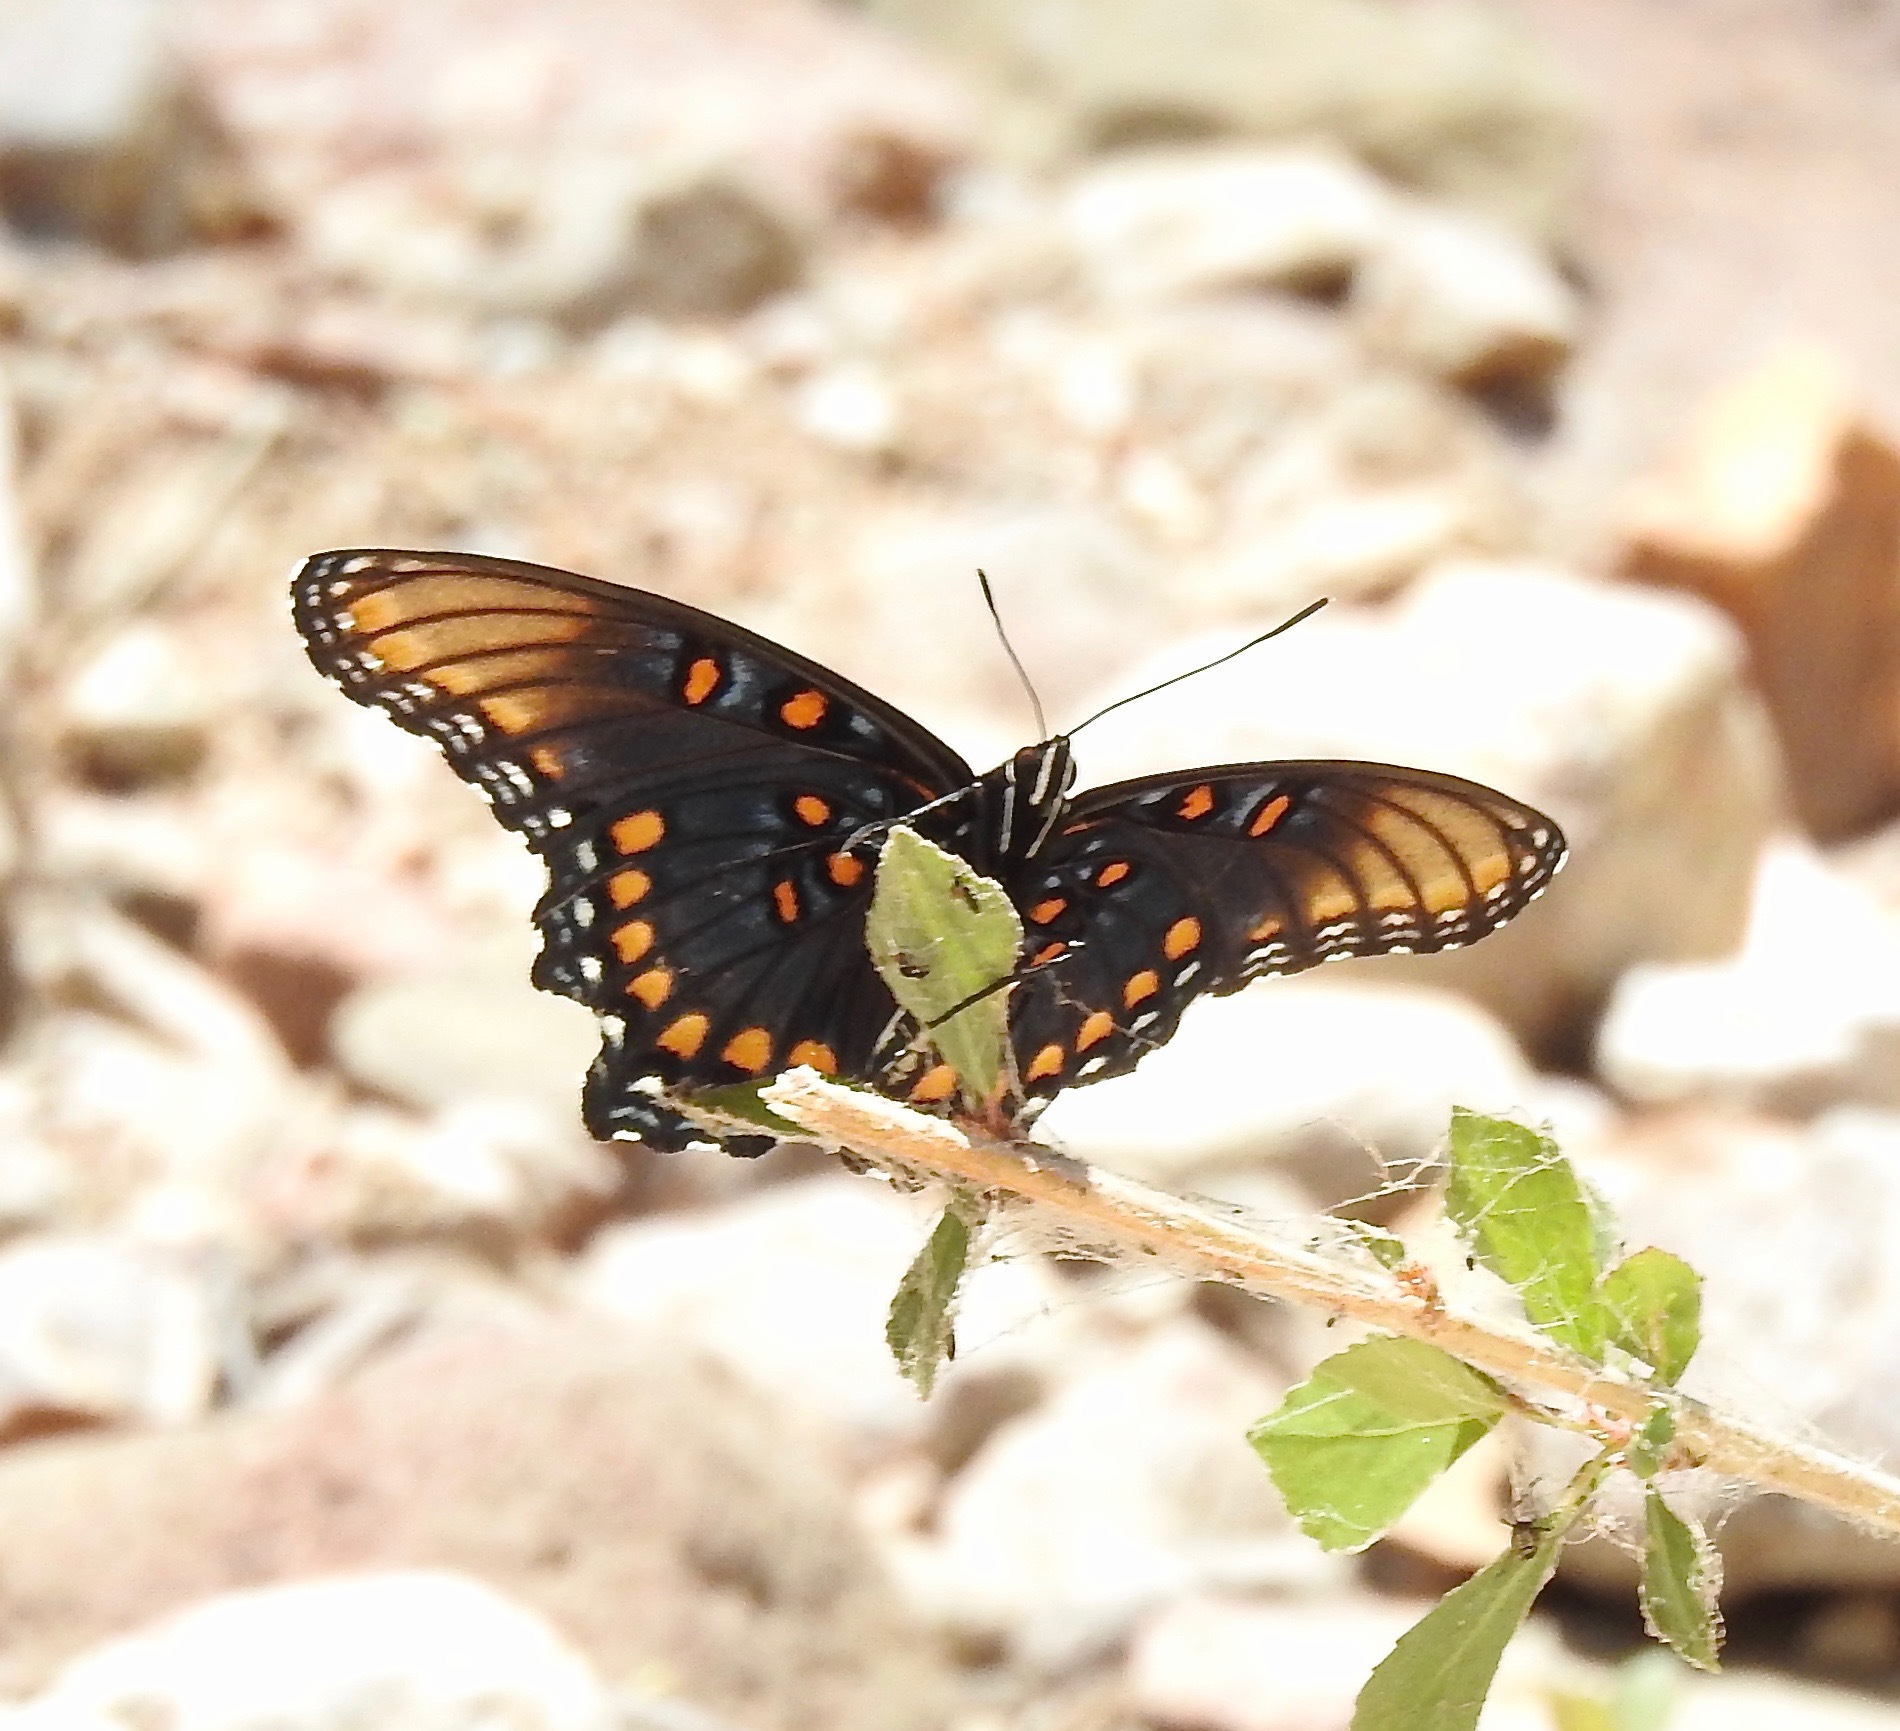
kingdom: Animalia
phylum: Arthropoda
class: Insecta
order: Lepidoptera
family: Nymphalidae
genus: Limenitis
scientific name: Limenitis arthemis
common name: Red-spotted admiral
